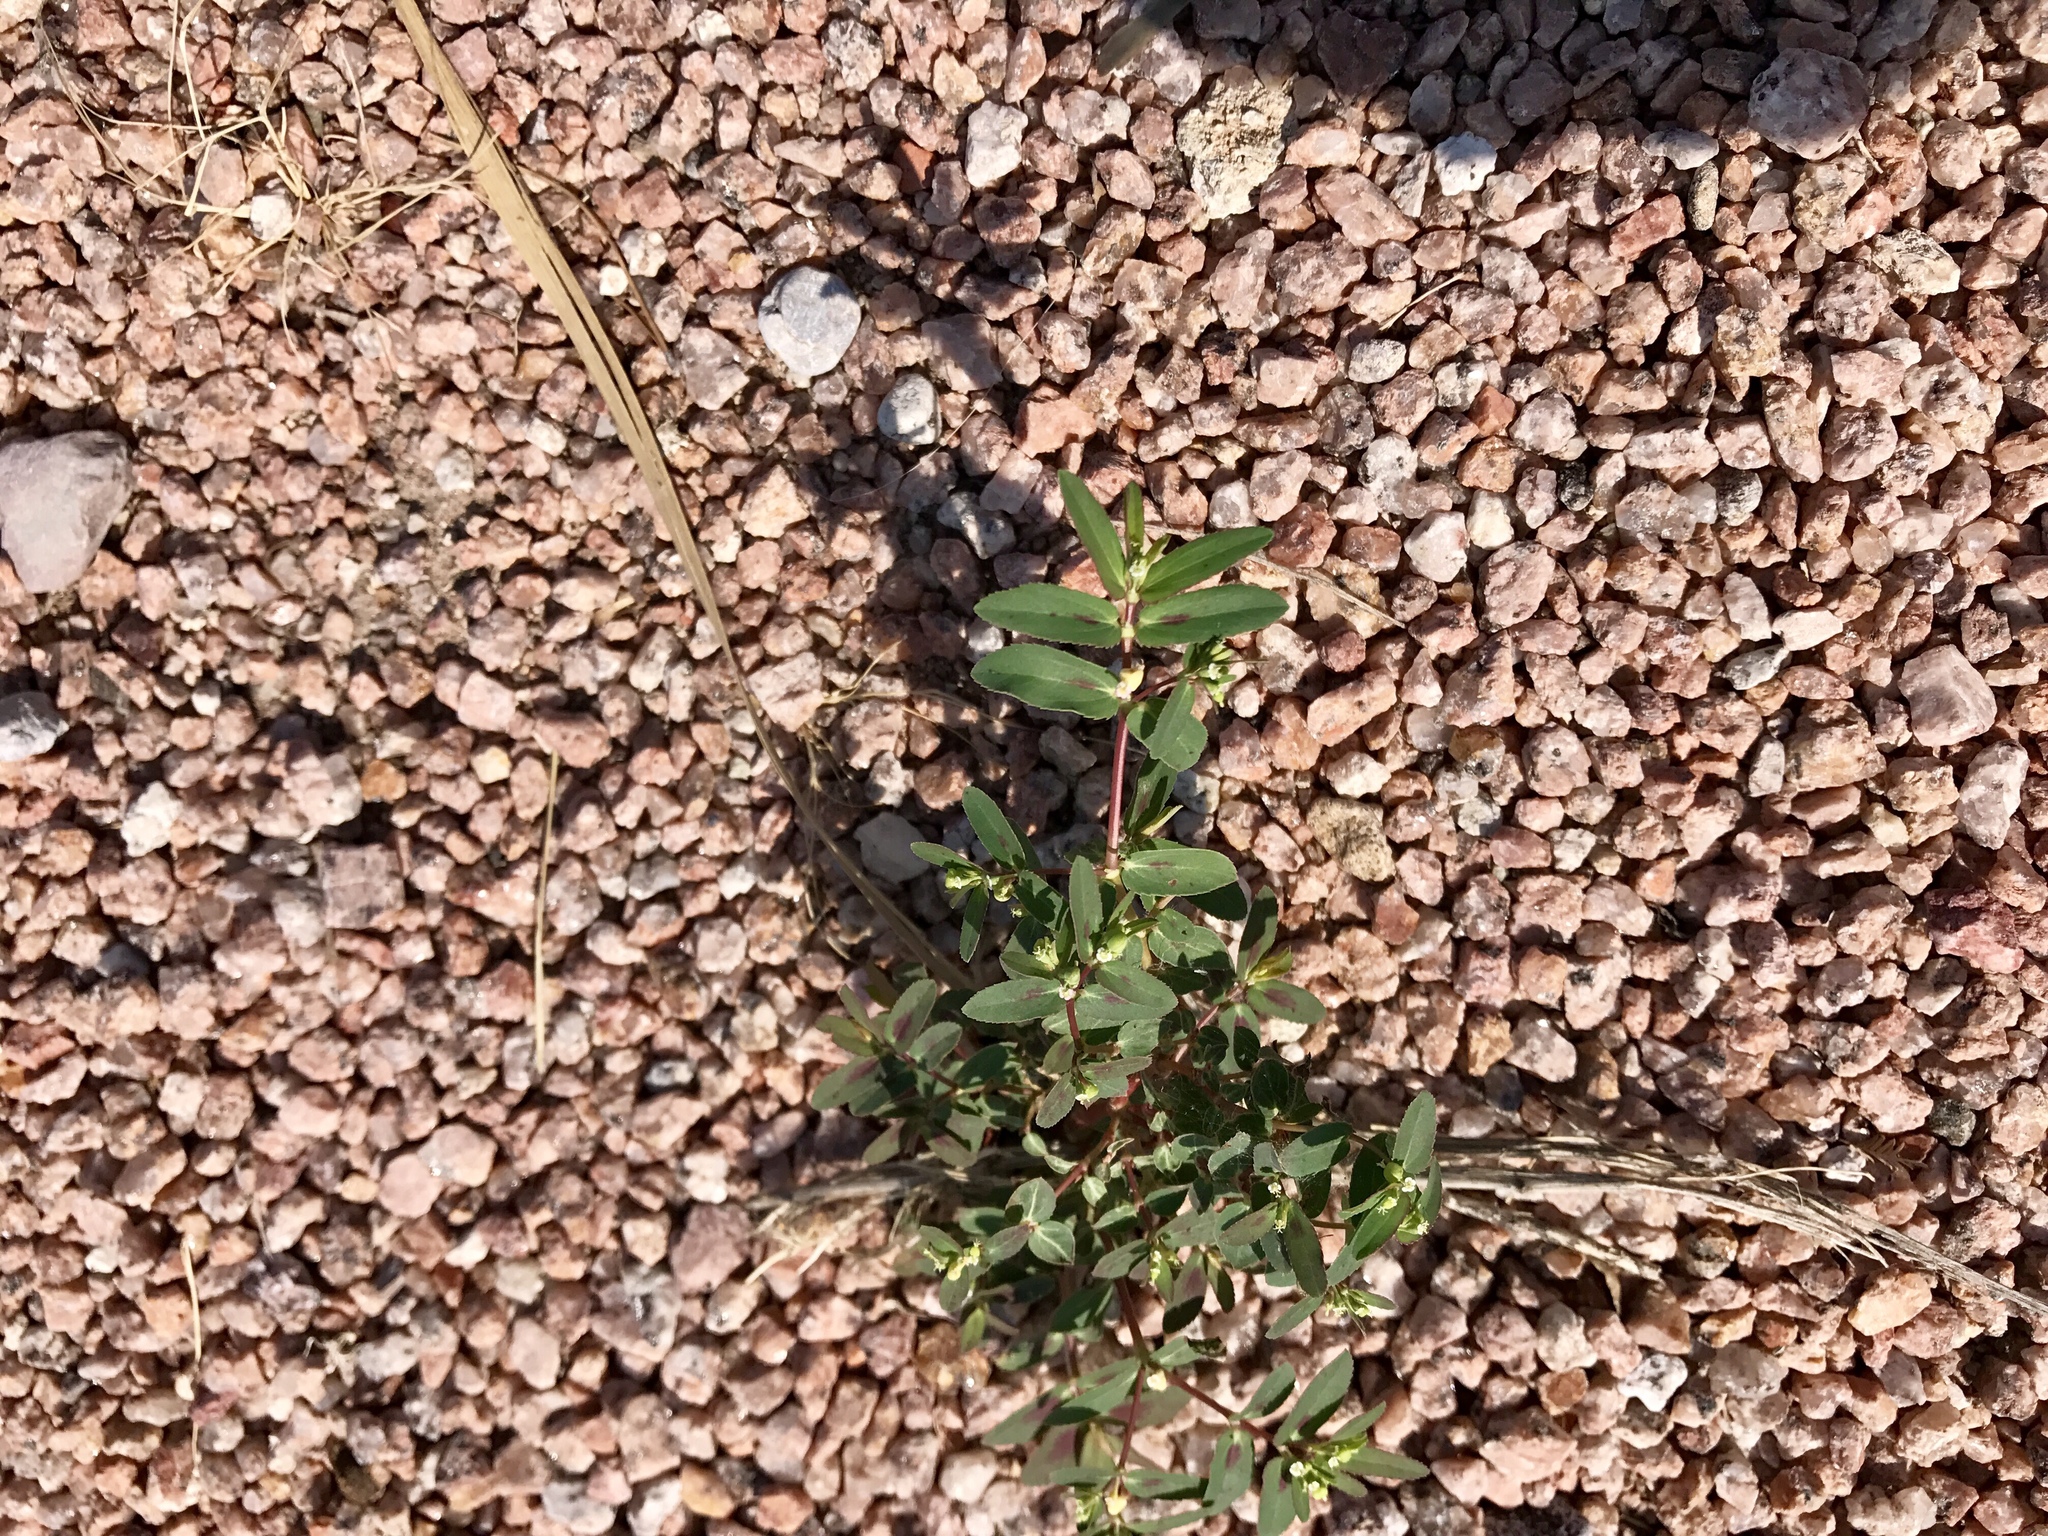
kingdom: Plantae
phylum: Tracheophyta
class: Magnoliopsida
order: Malpighiales
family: Euphorbiaceae
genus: Euphorbia
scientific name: Euphorbia hyssopifolia
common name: Hyssopleaf sandmat
